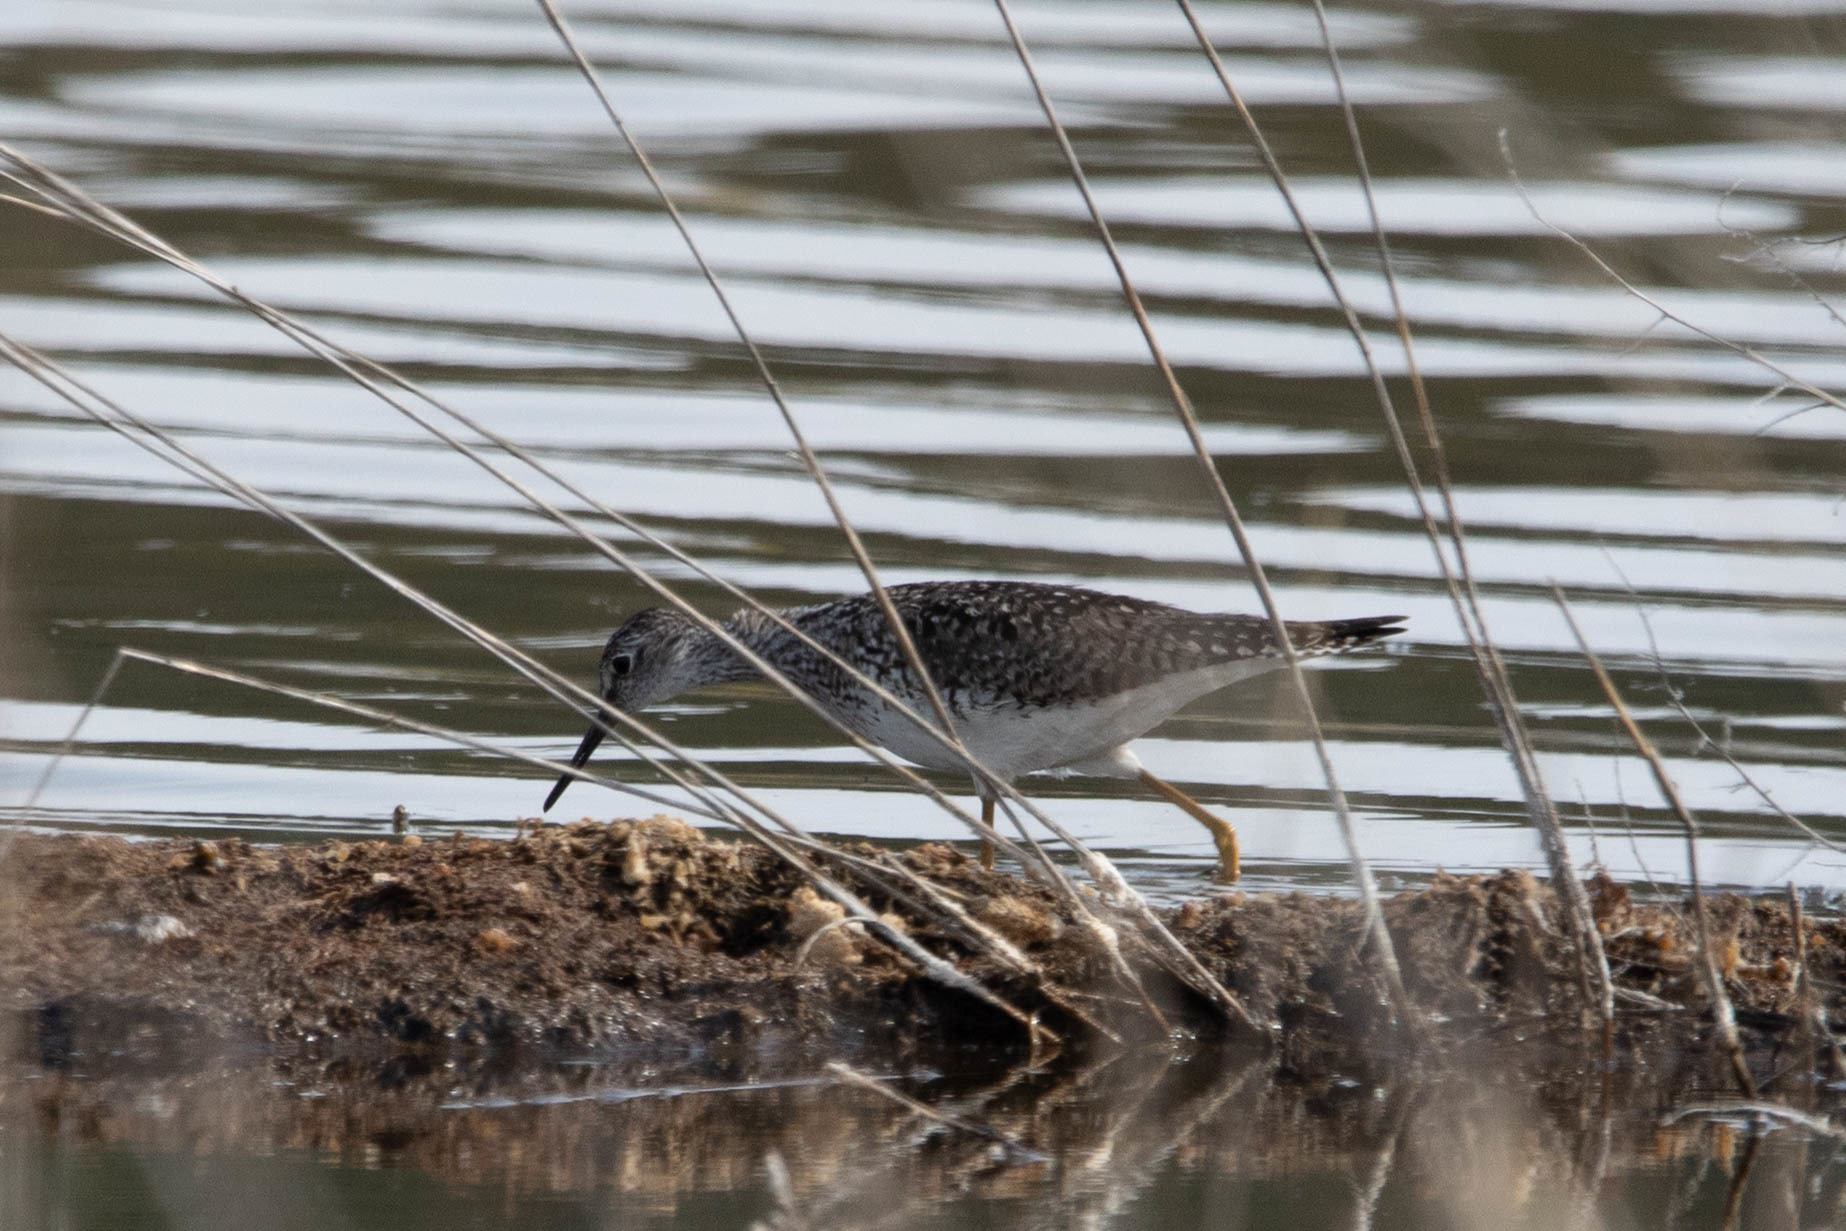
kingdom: Animalia
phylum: Chordata
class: Aves
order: Charadriiformes
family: Scolopacidae
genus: Tringa
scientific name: Tringa flavipes
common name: Lesser yellowlegs
